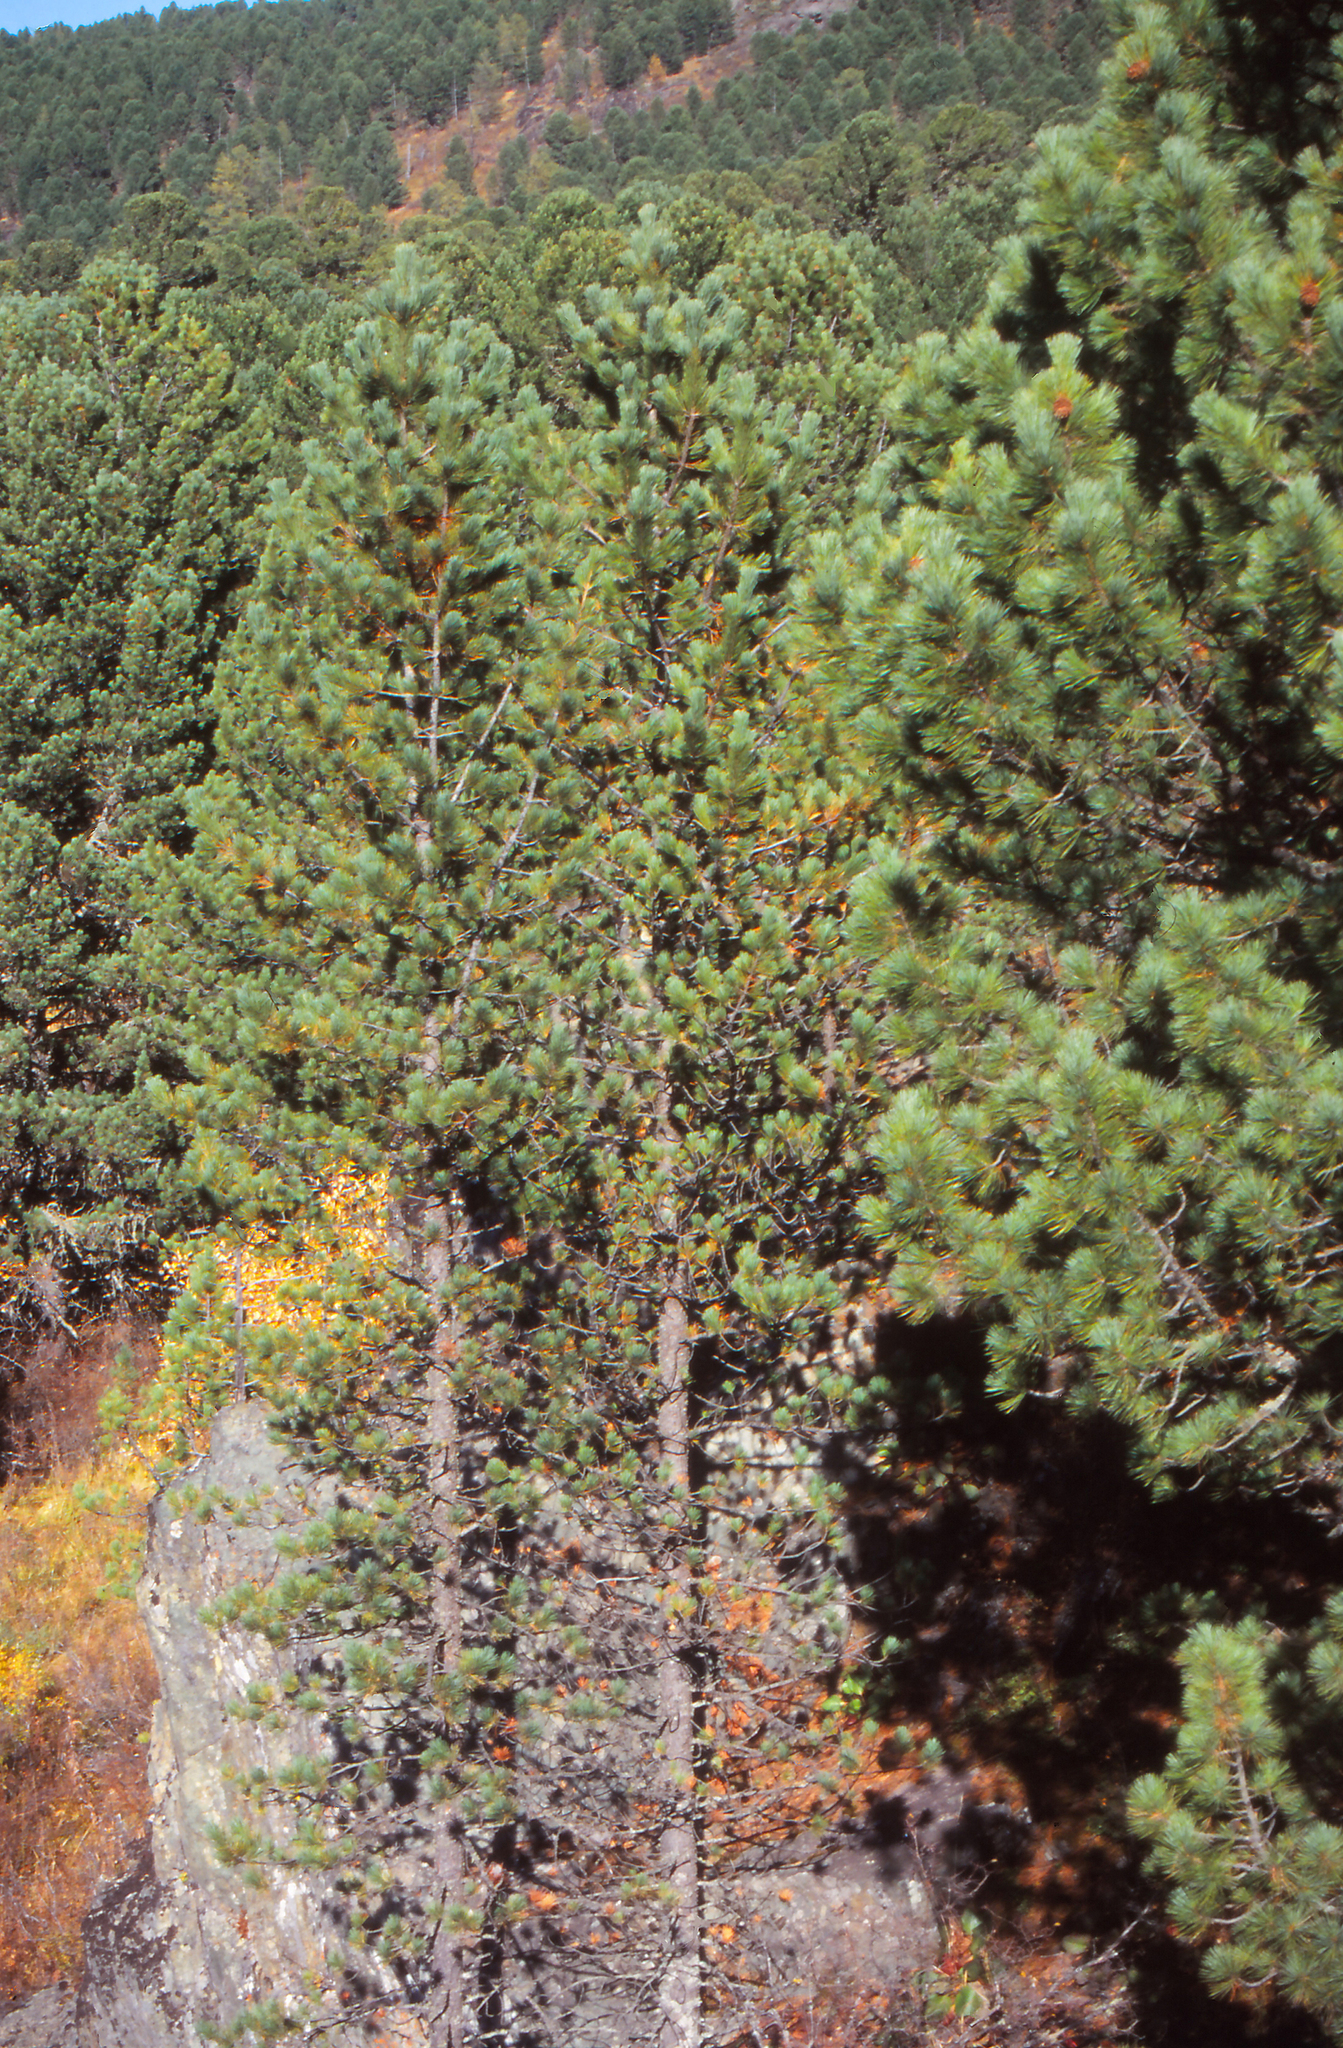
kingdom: Plantae
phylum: Tracheophyta
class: Pinopsida
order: Pinales
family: Pinaceae
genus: Pinus
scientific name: Pinus sibirica
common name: Siberian pine
